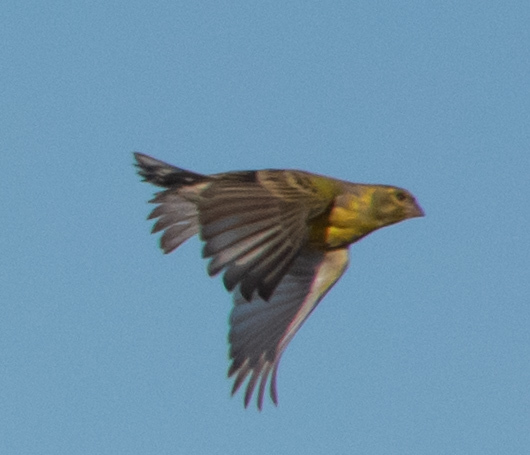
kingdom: Animalia
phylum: Chordata
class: Aves
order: Passeriformes
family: Fringillidae
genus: Serinus
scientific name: Serinus serinus
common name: European serin
